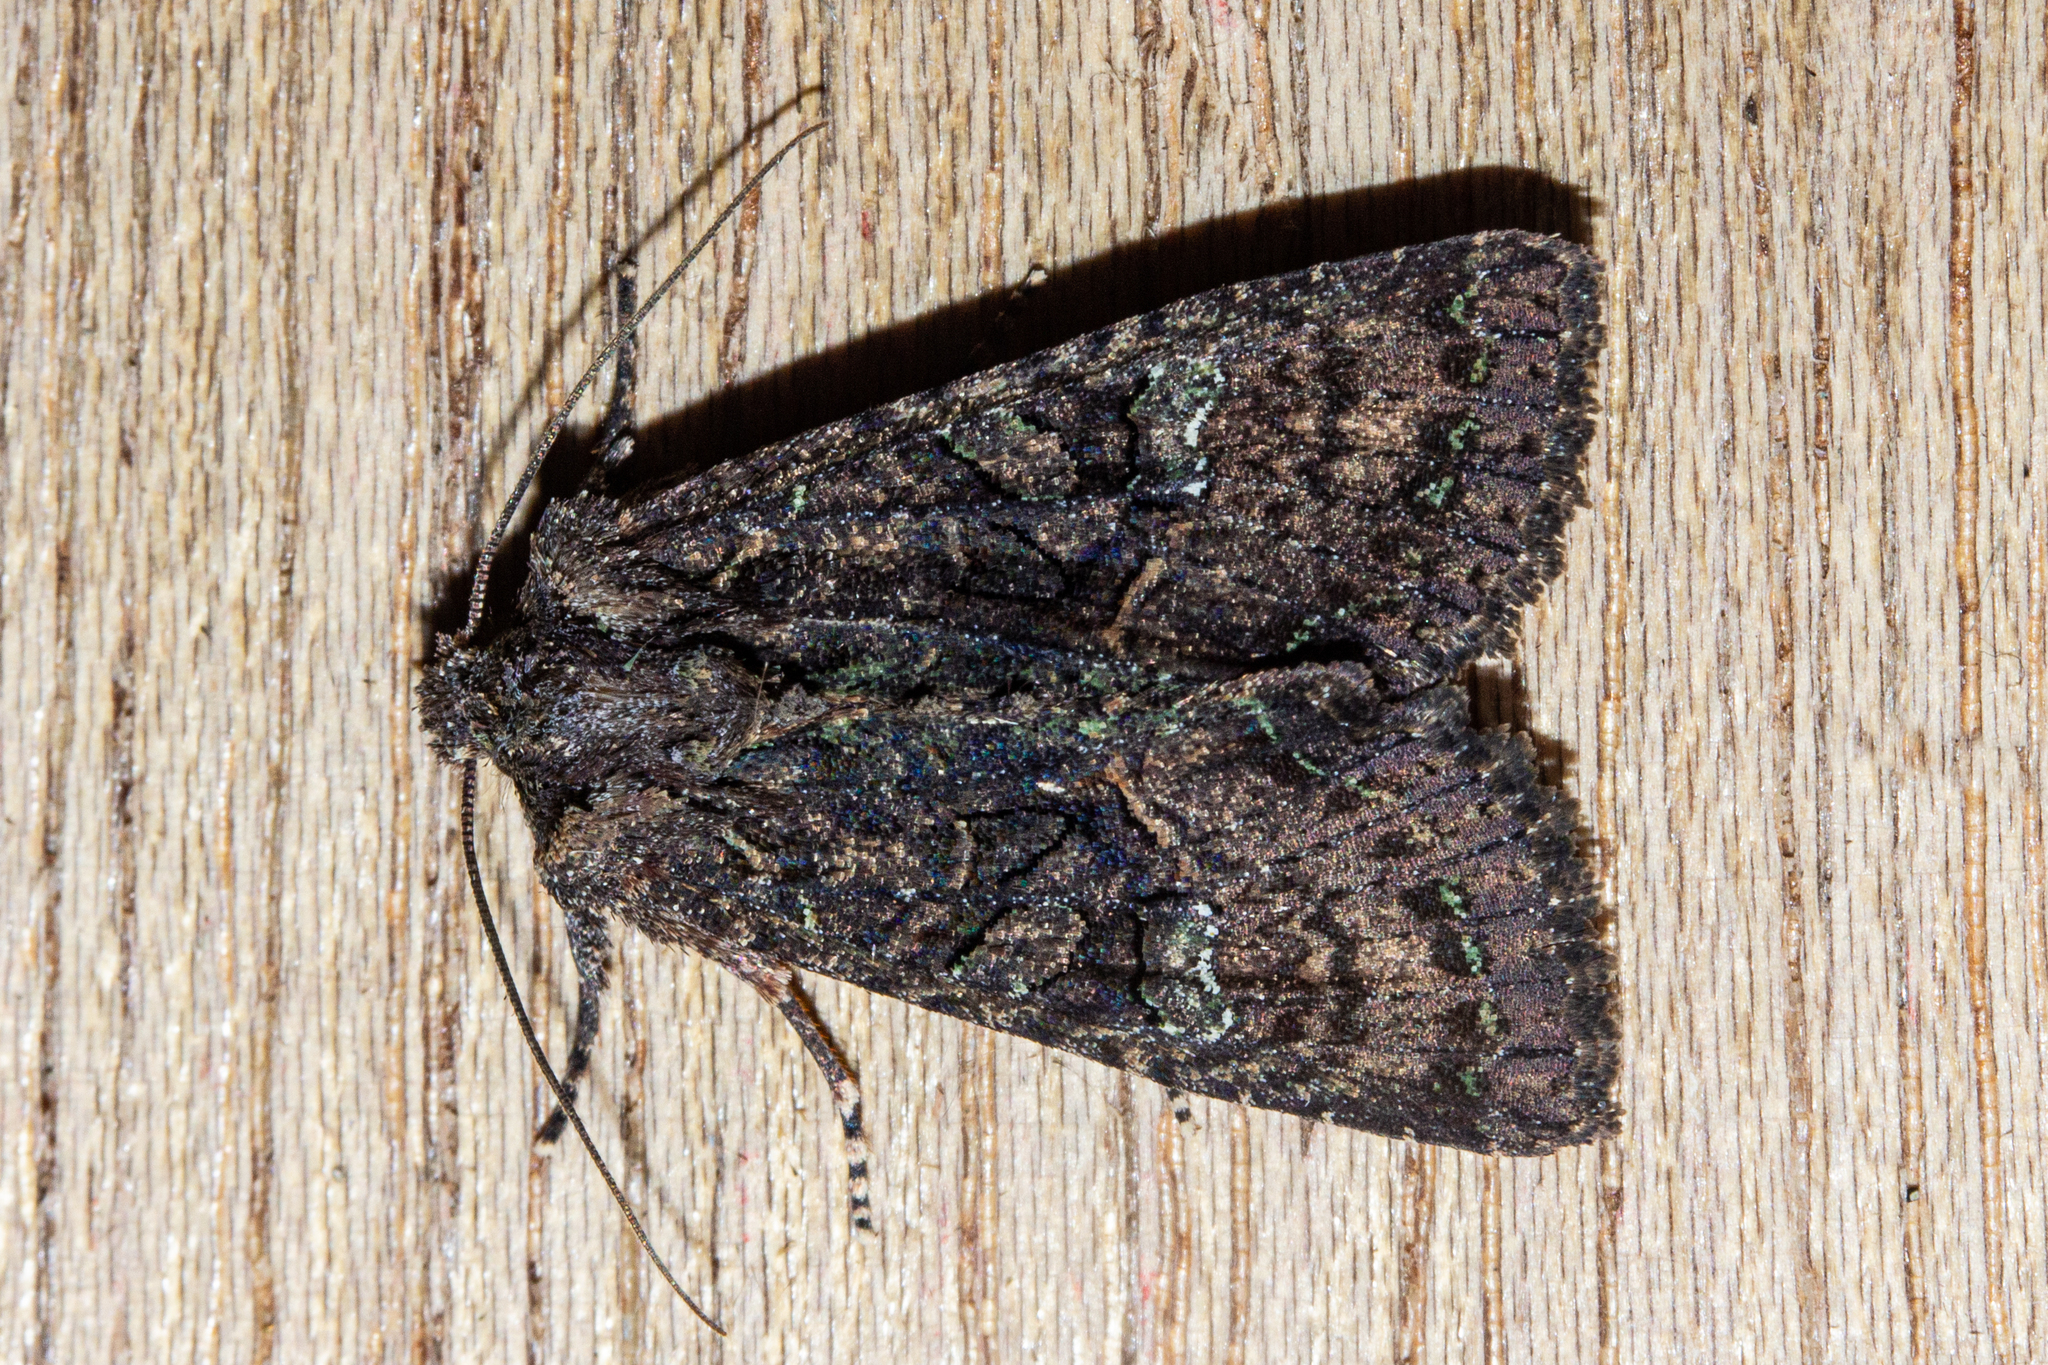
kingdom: Animalia
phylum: Arthropoda
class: Insecta
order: Lepidoptera
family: Noctuidae
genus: Meterana
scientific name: Meterana ochthistis
